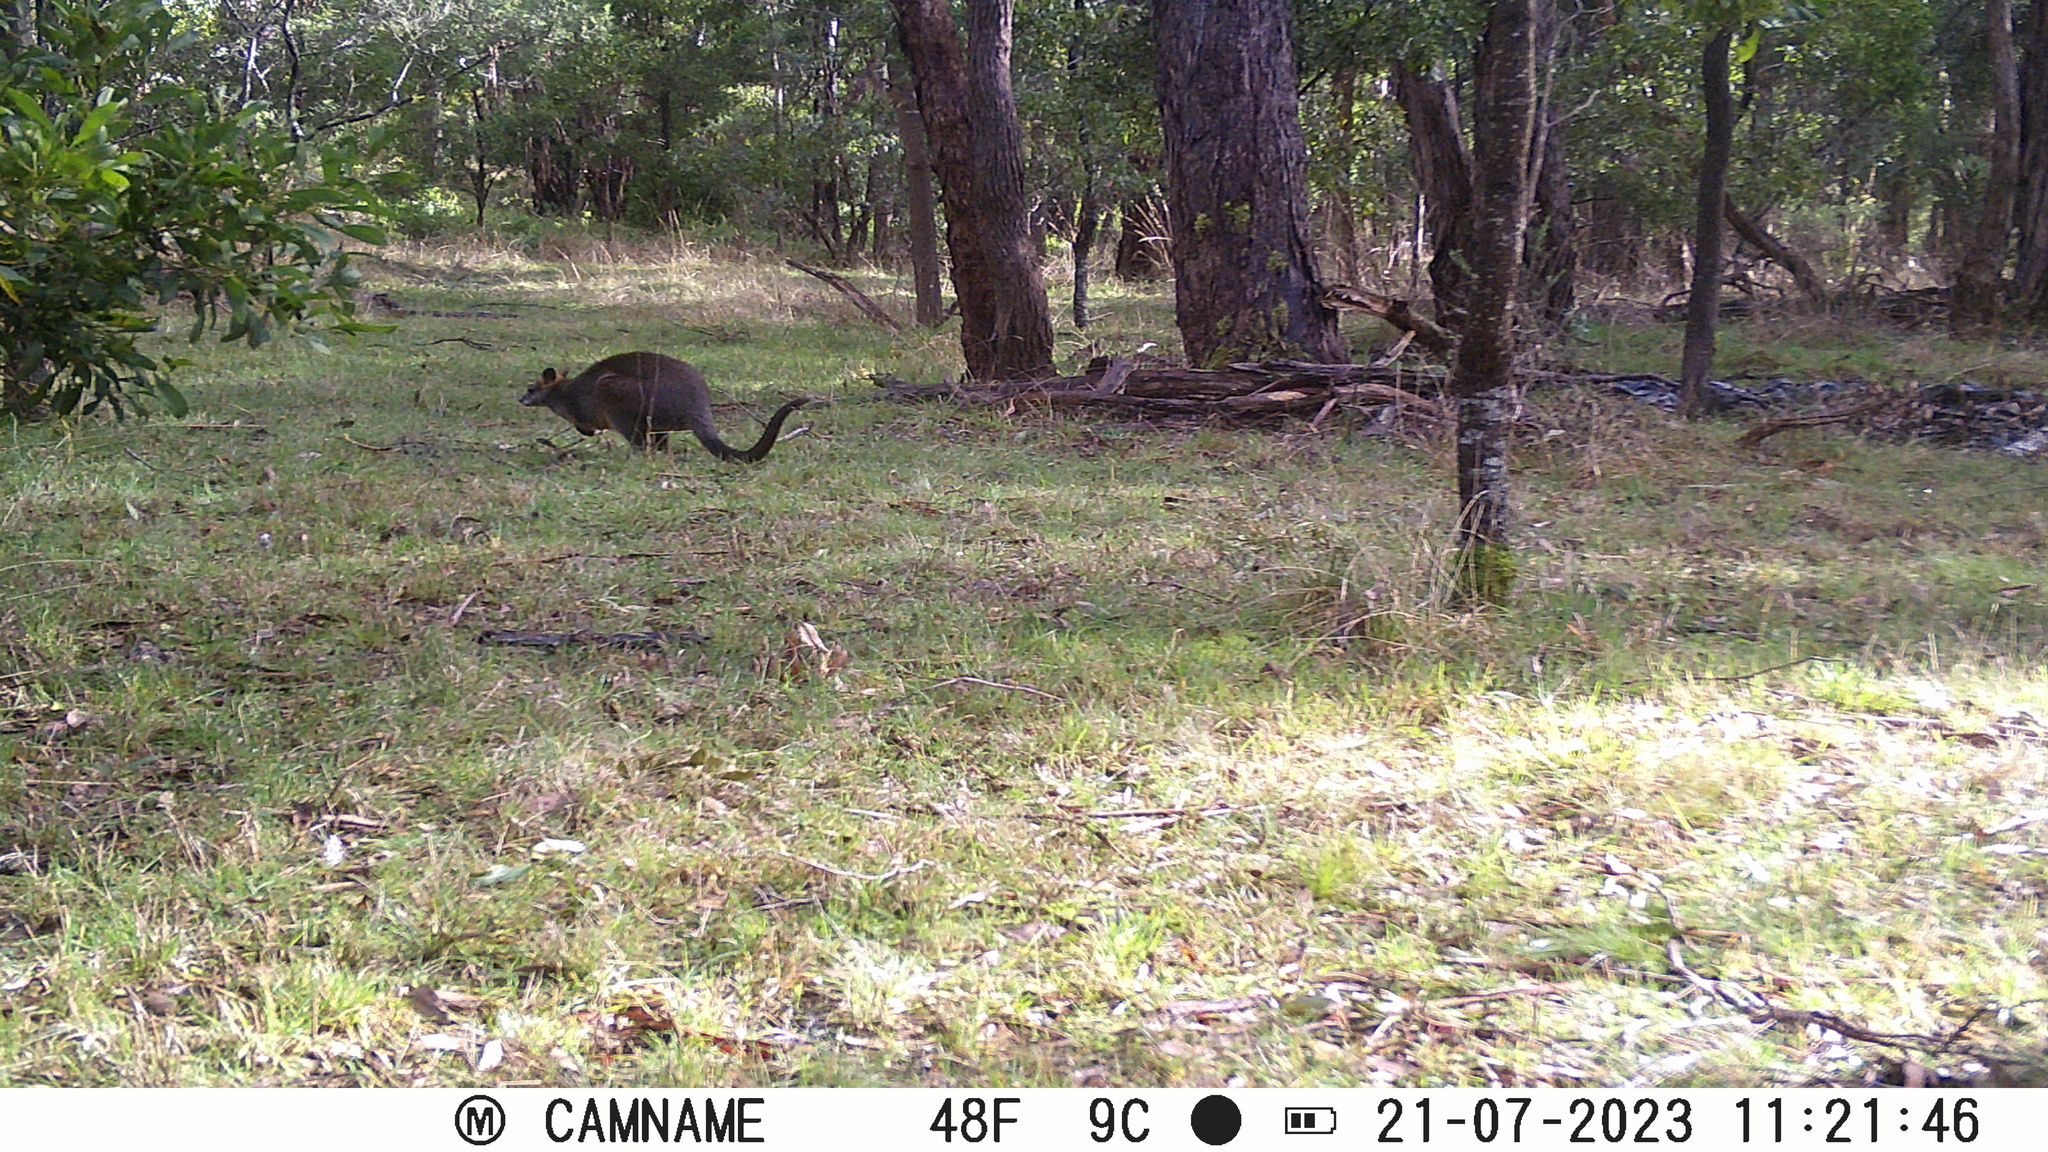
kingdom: Animalia
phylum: Chordata
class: Mammalia
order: Diprotodontia
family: Macropodidae
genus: Wallabia
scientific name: Wallabia bicolor
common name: Swamp wallaby
